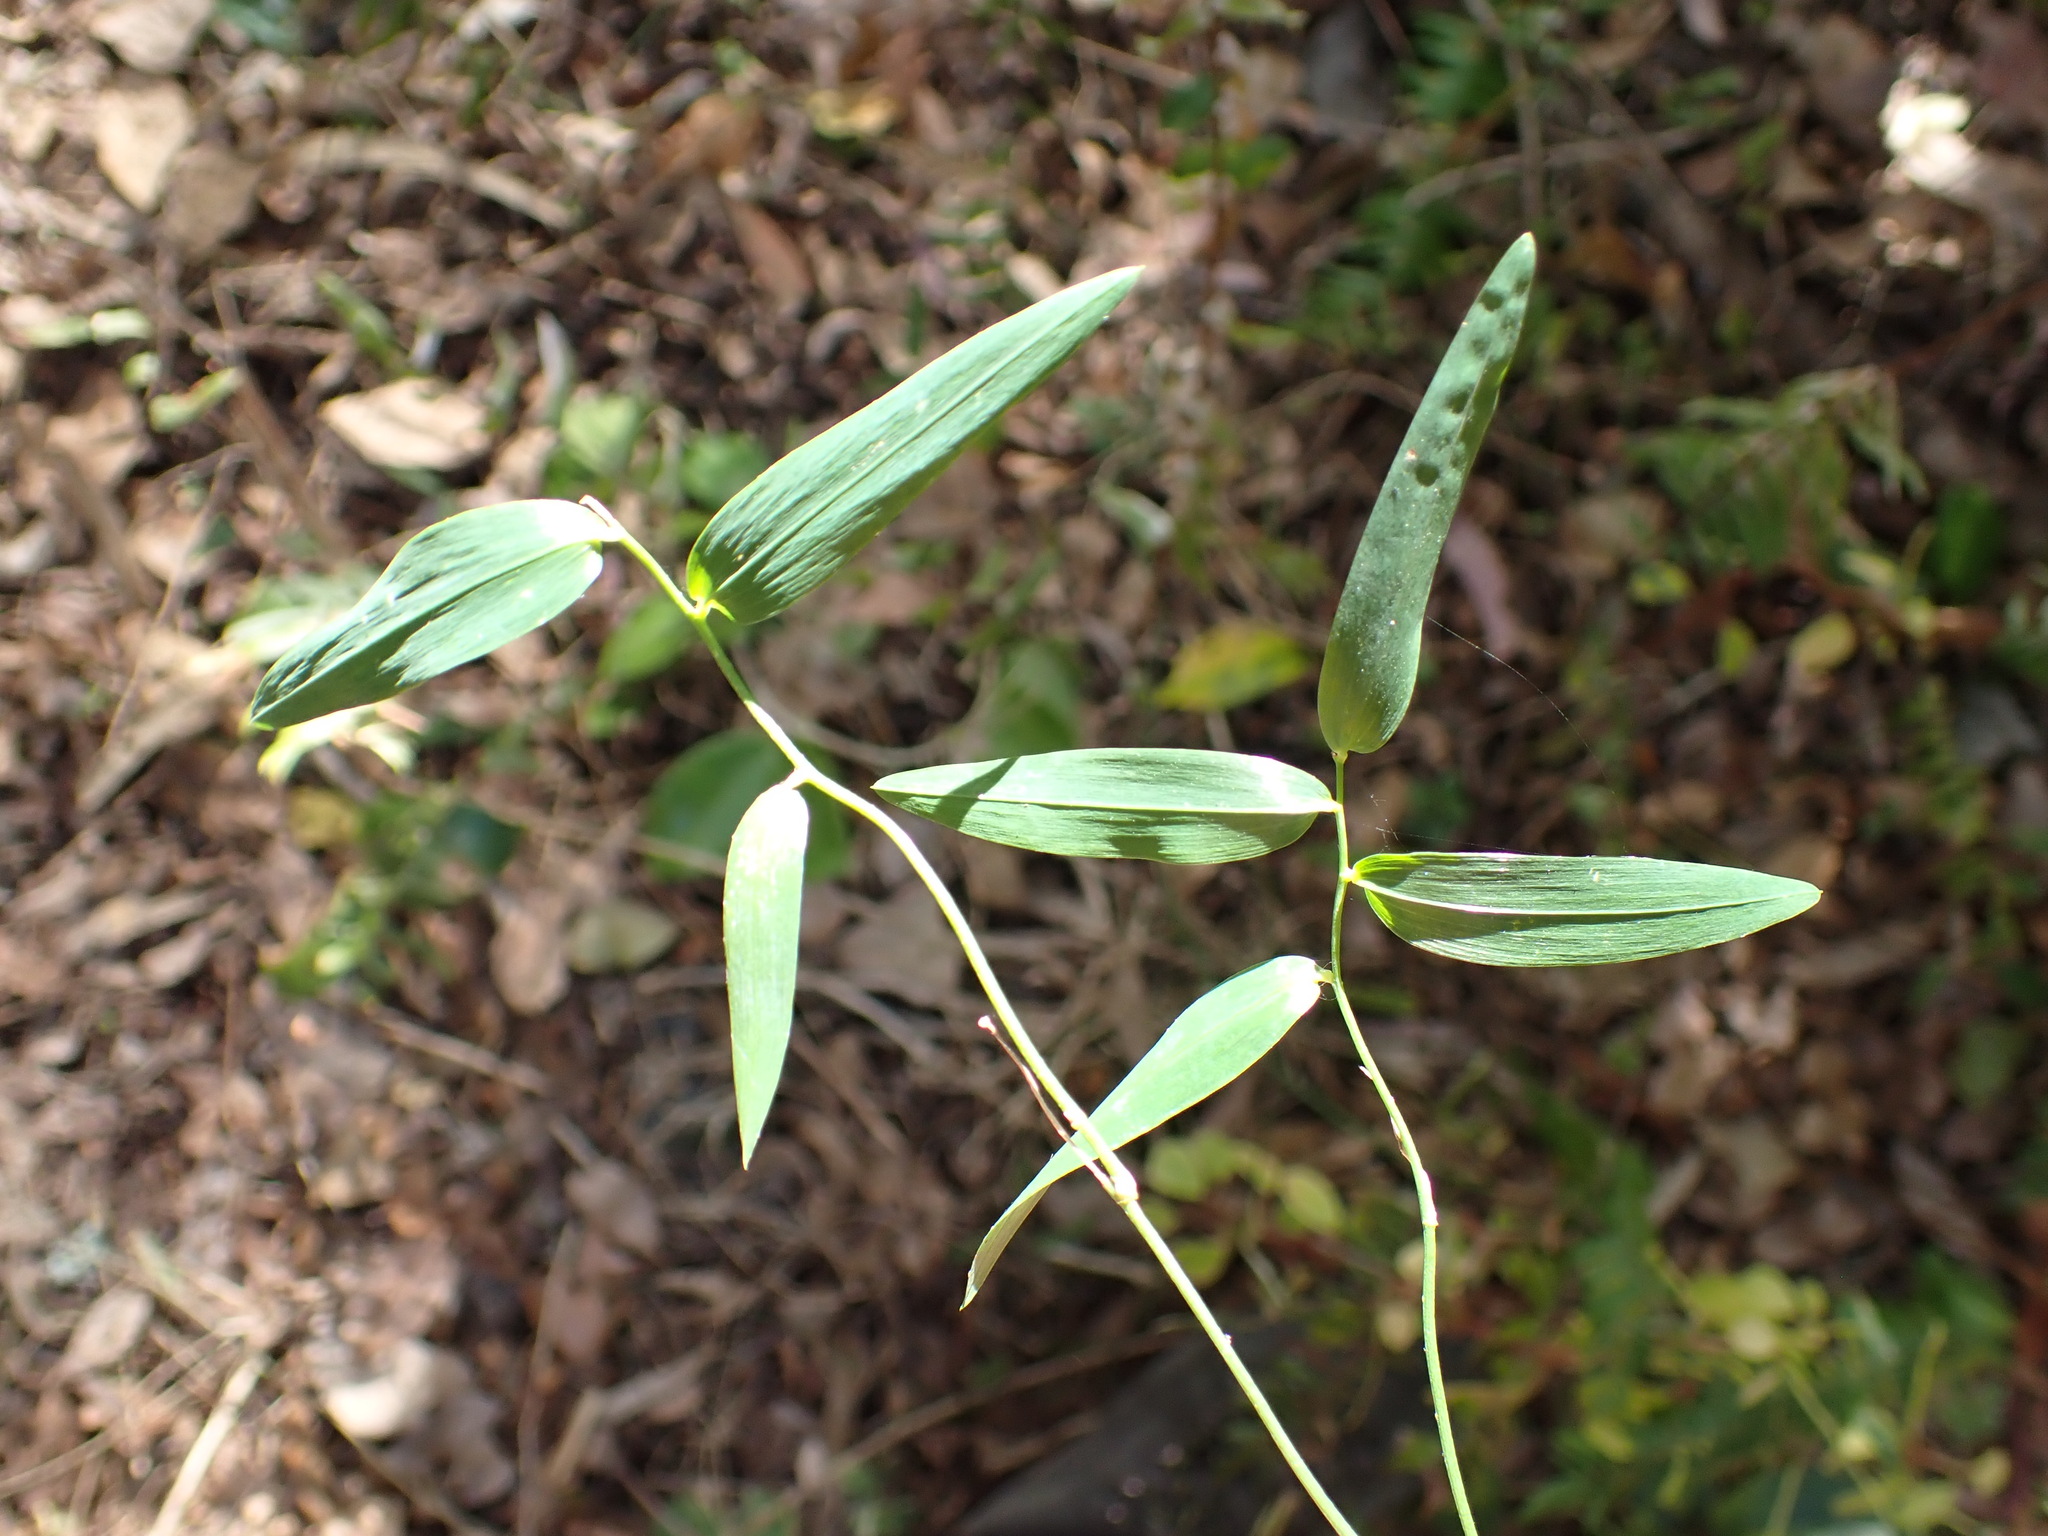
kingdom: Plantae
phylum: Tracheophyta
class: Liliopsida
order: Asparagales
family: Asphodelaceae
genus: Geitonoplesium
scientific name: Geitonoplesium cymosum
